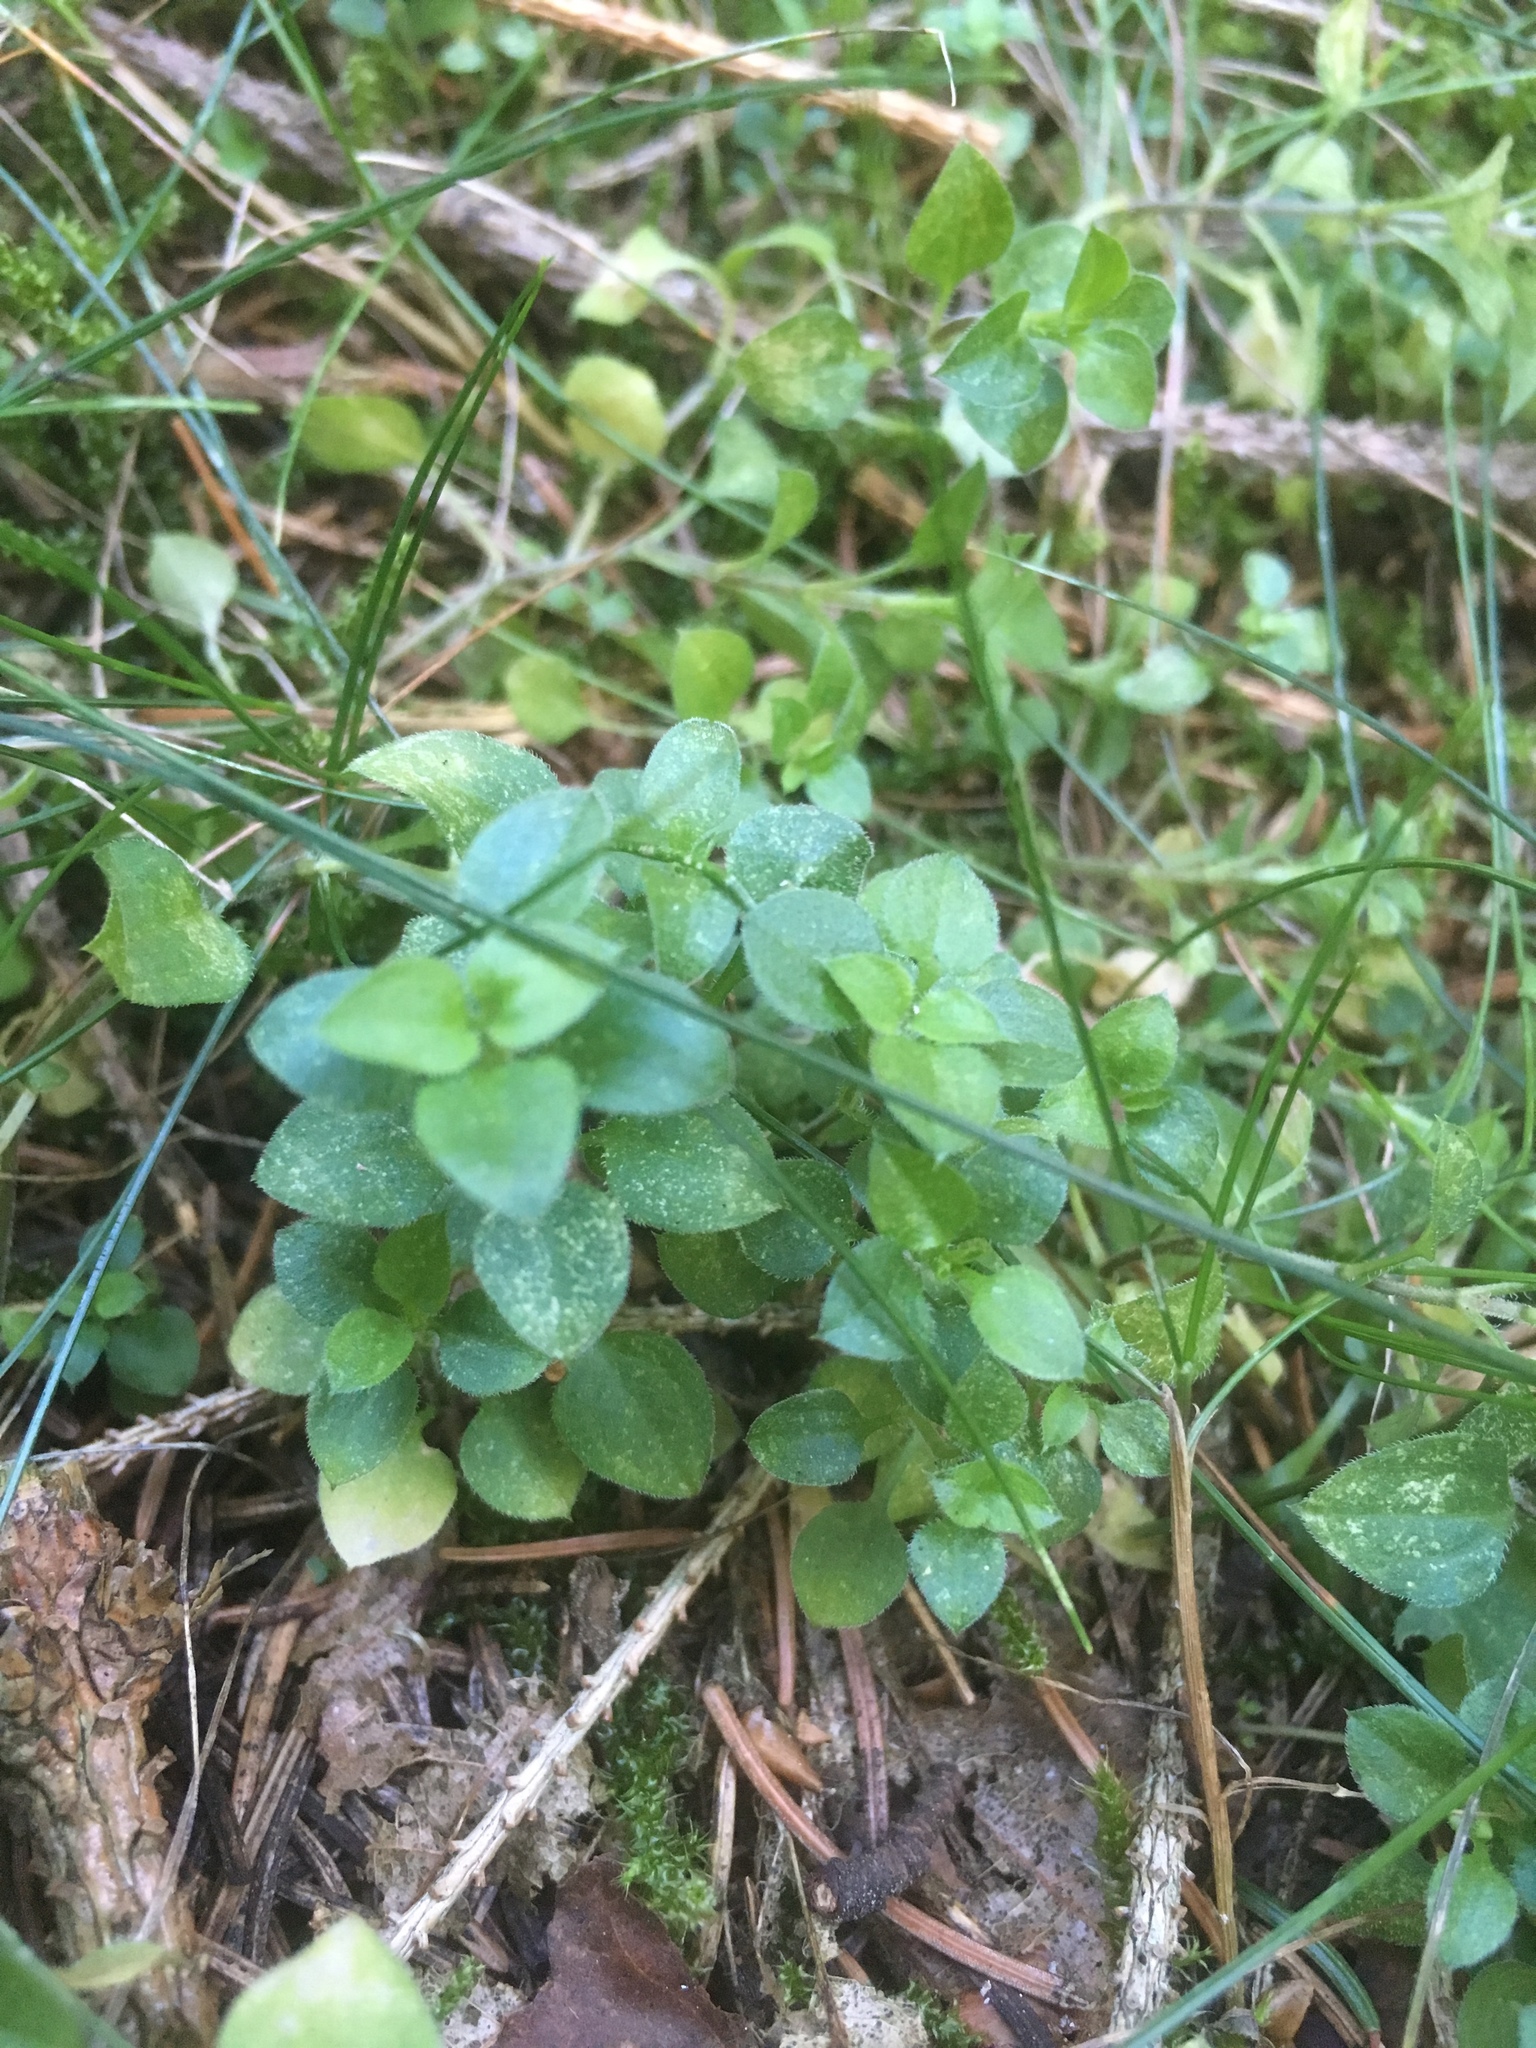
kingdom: Plantae
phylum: Tracheophyta
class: Magnoliopsida
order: Caryophyllales
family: Caryophyllaceae
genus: Moehringia
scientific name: Moehringia trinervia
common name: Three-nerved sandwort
